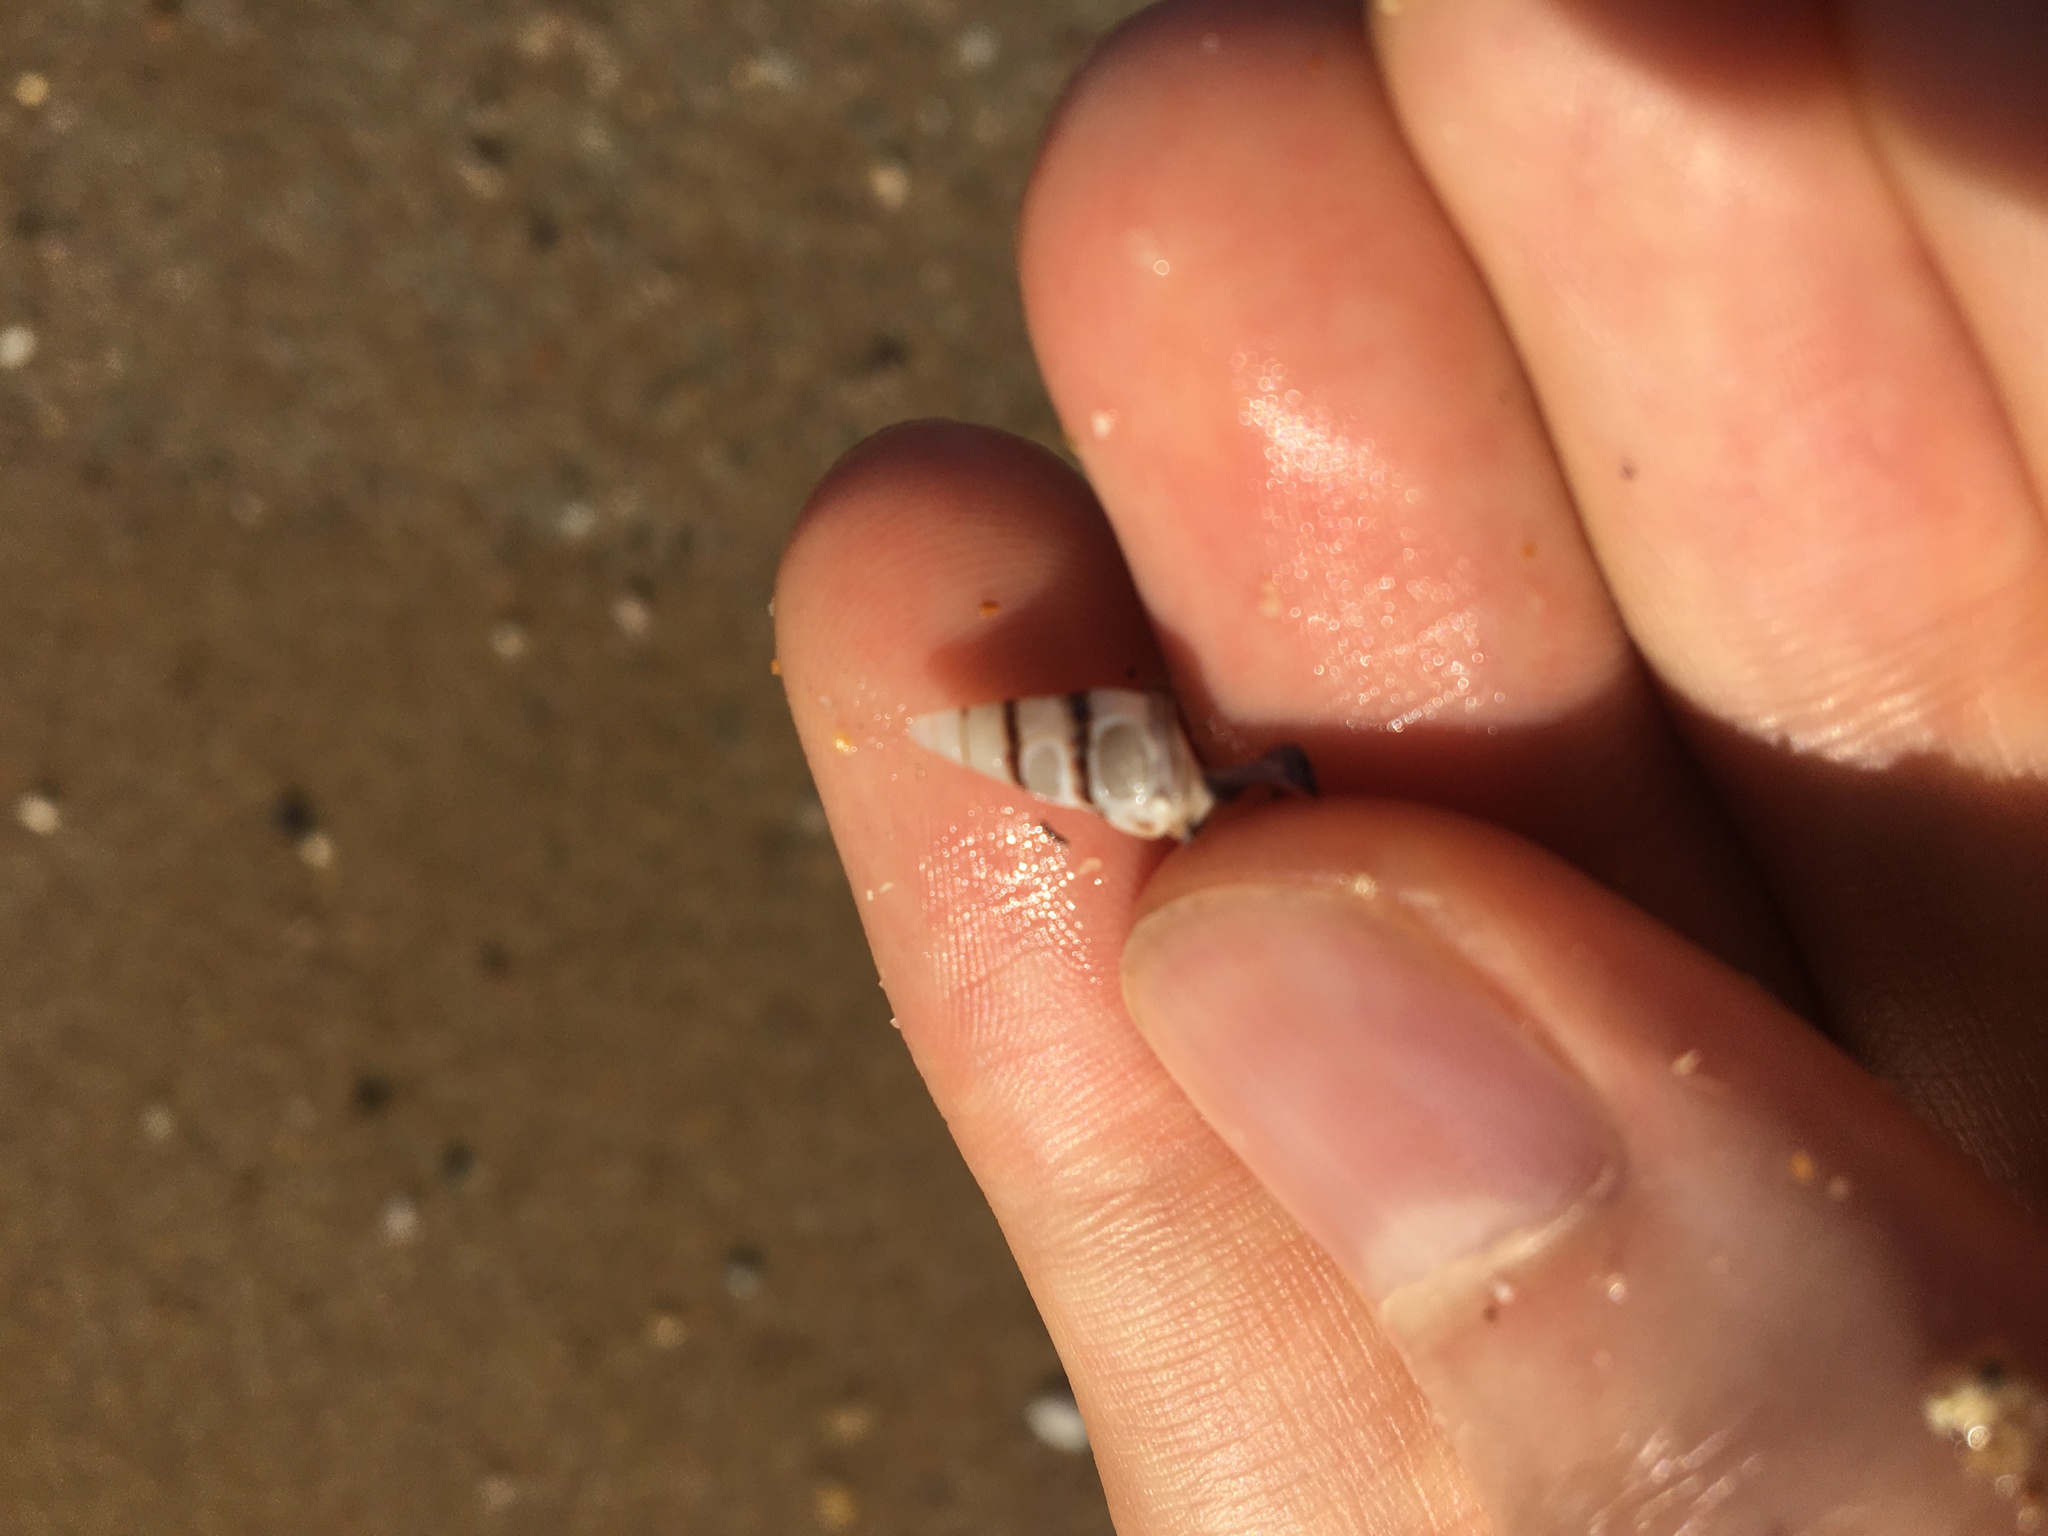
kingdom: Animalia
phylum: Mollusca
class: Gastropoda
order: Trochida
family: Trochidae
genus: Bankivia
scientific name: Bankivia fasciata
